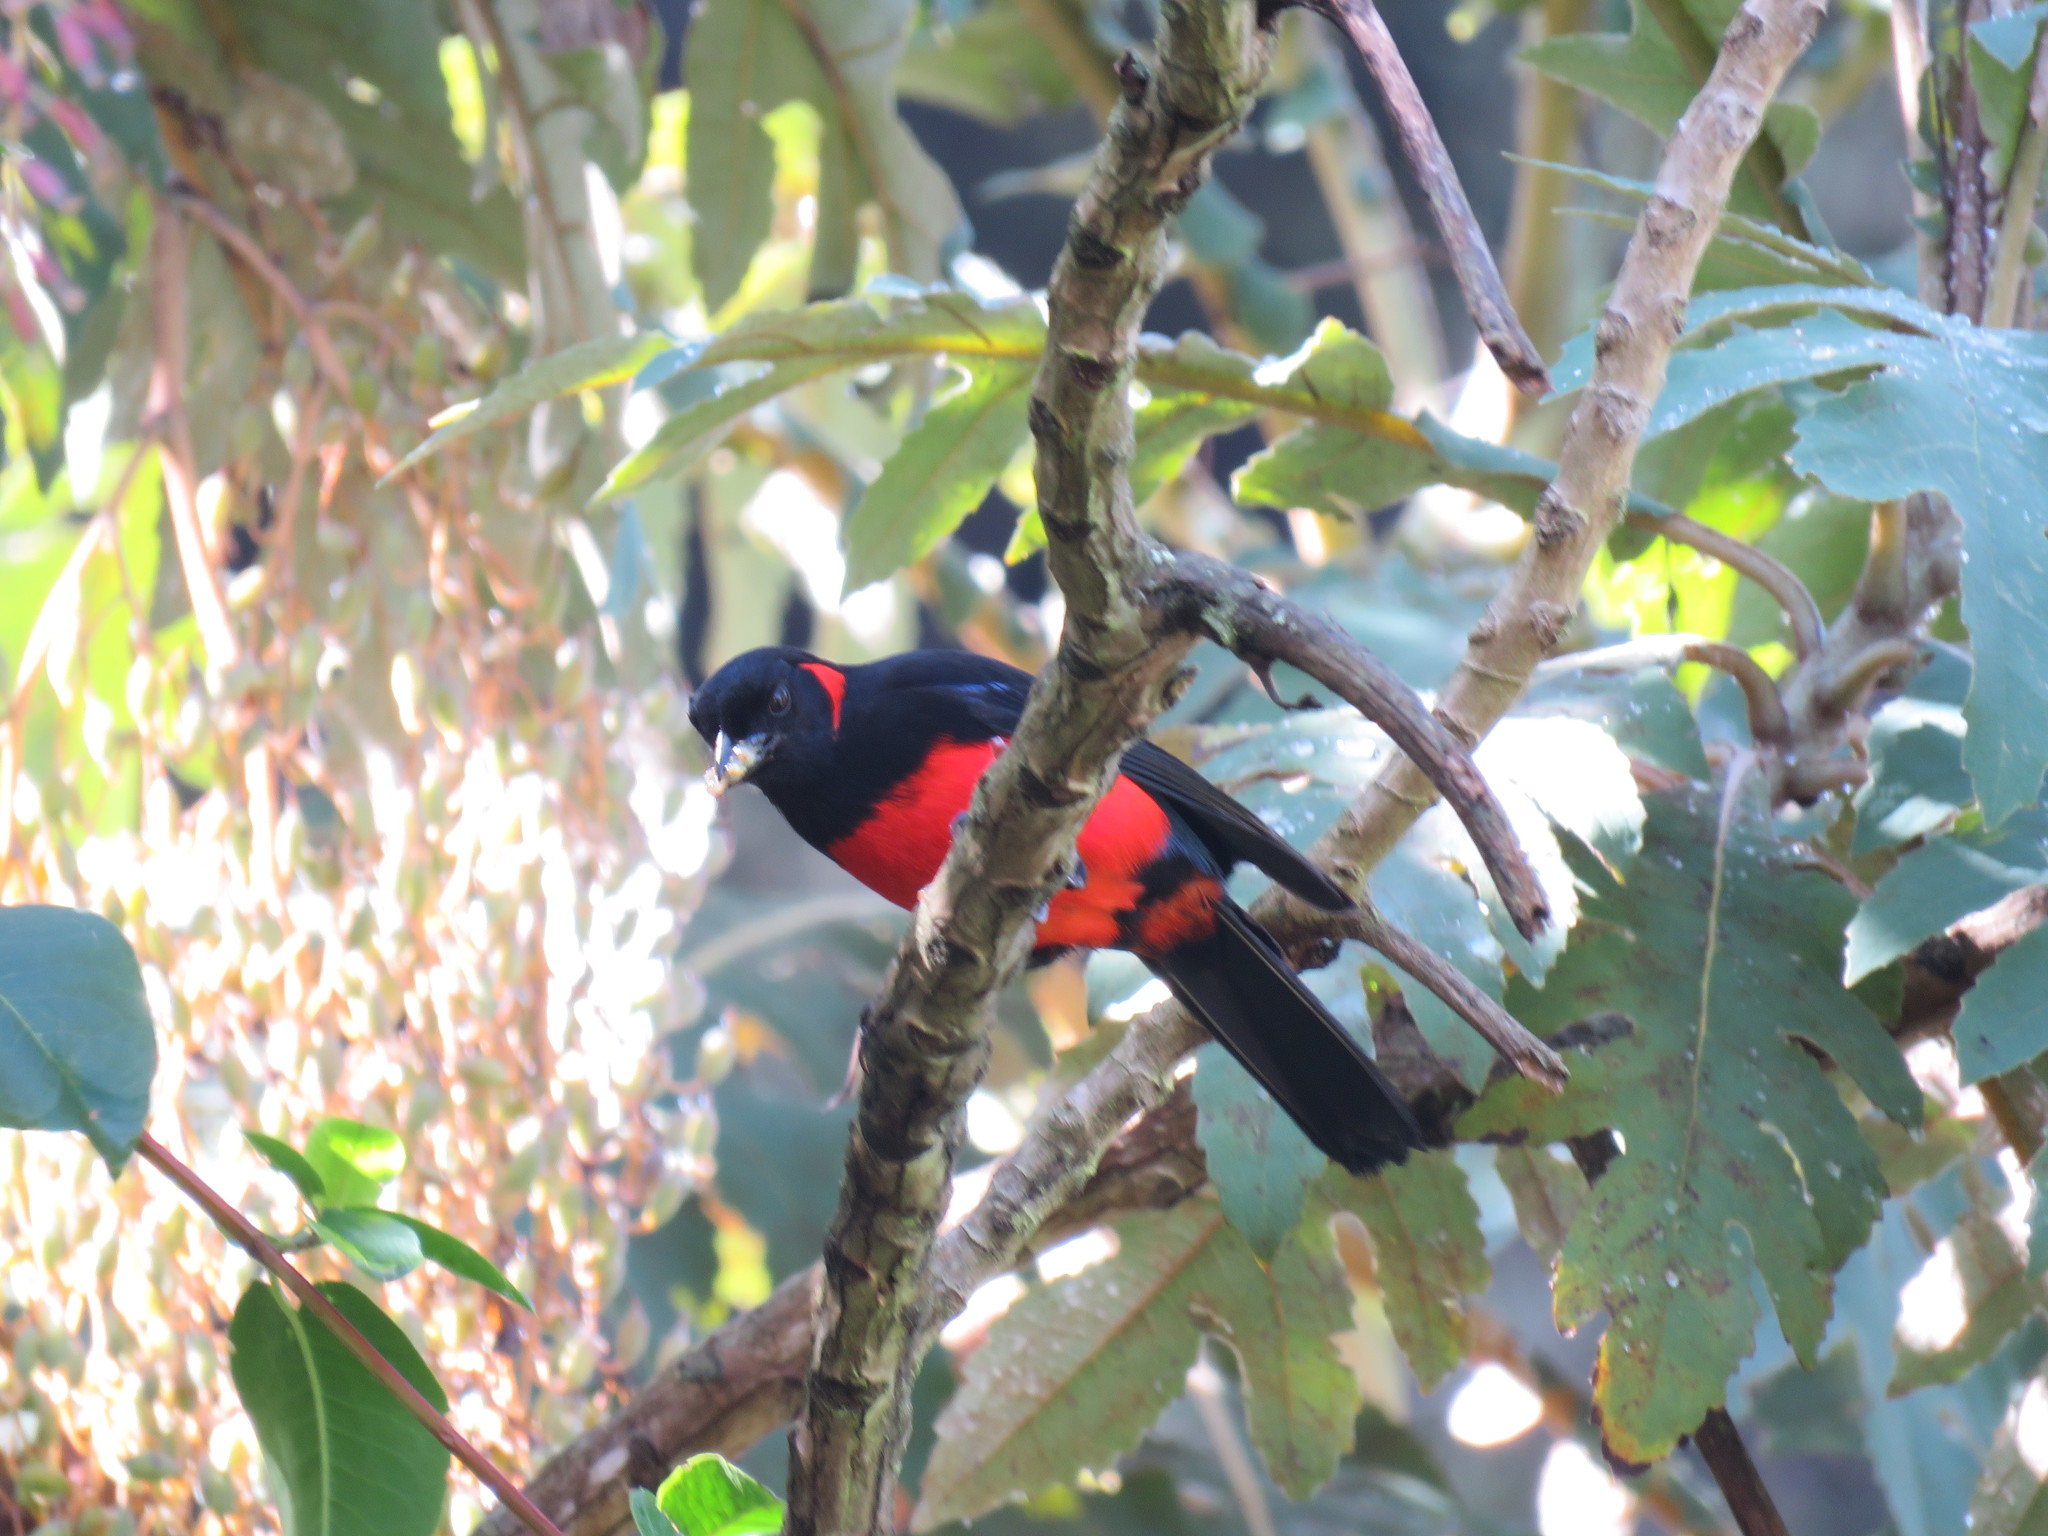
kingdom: Animalia
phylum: Chordata
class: Aves
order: Passeriformes
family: Thraupidae
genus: Anisognathus
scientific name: Anisognathus igniventris
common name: Scarlet-bellied mountain tanager
